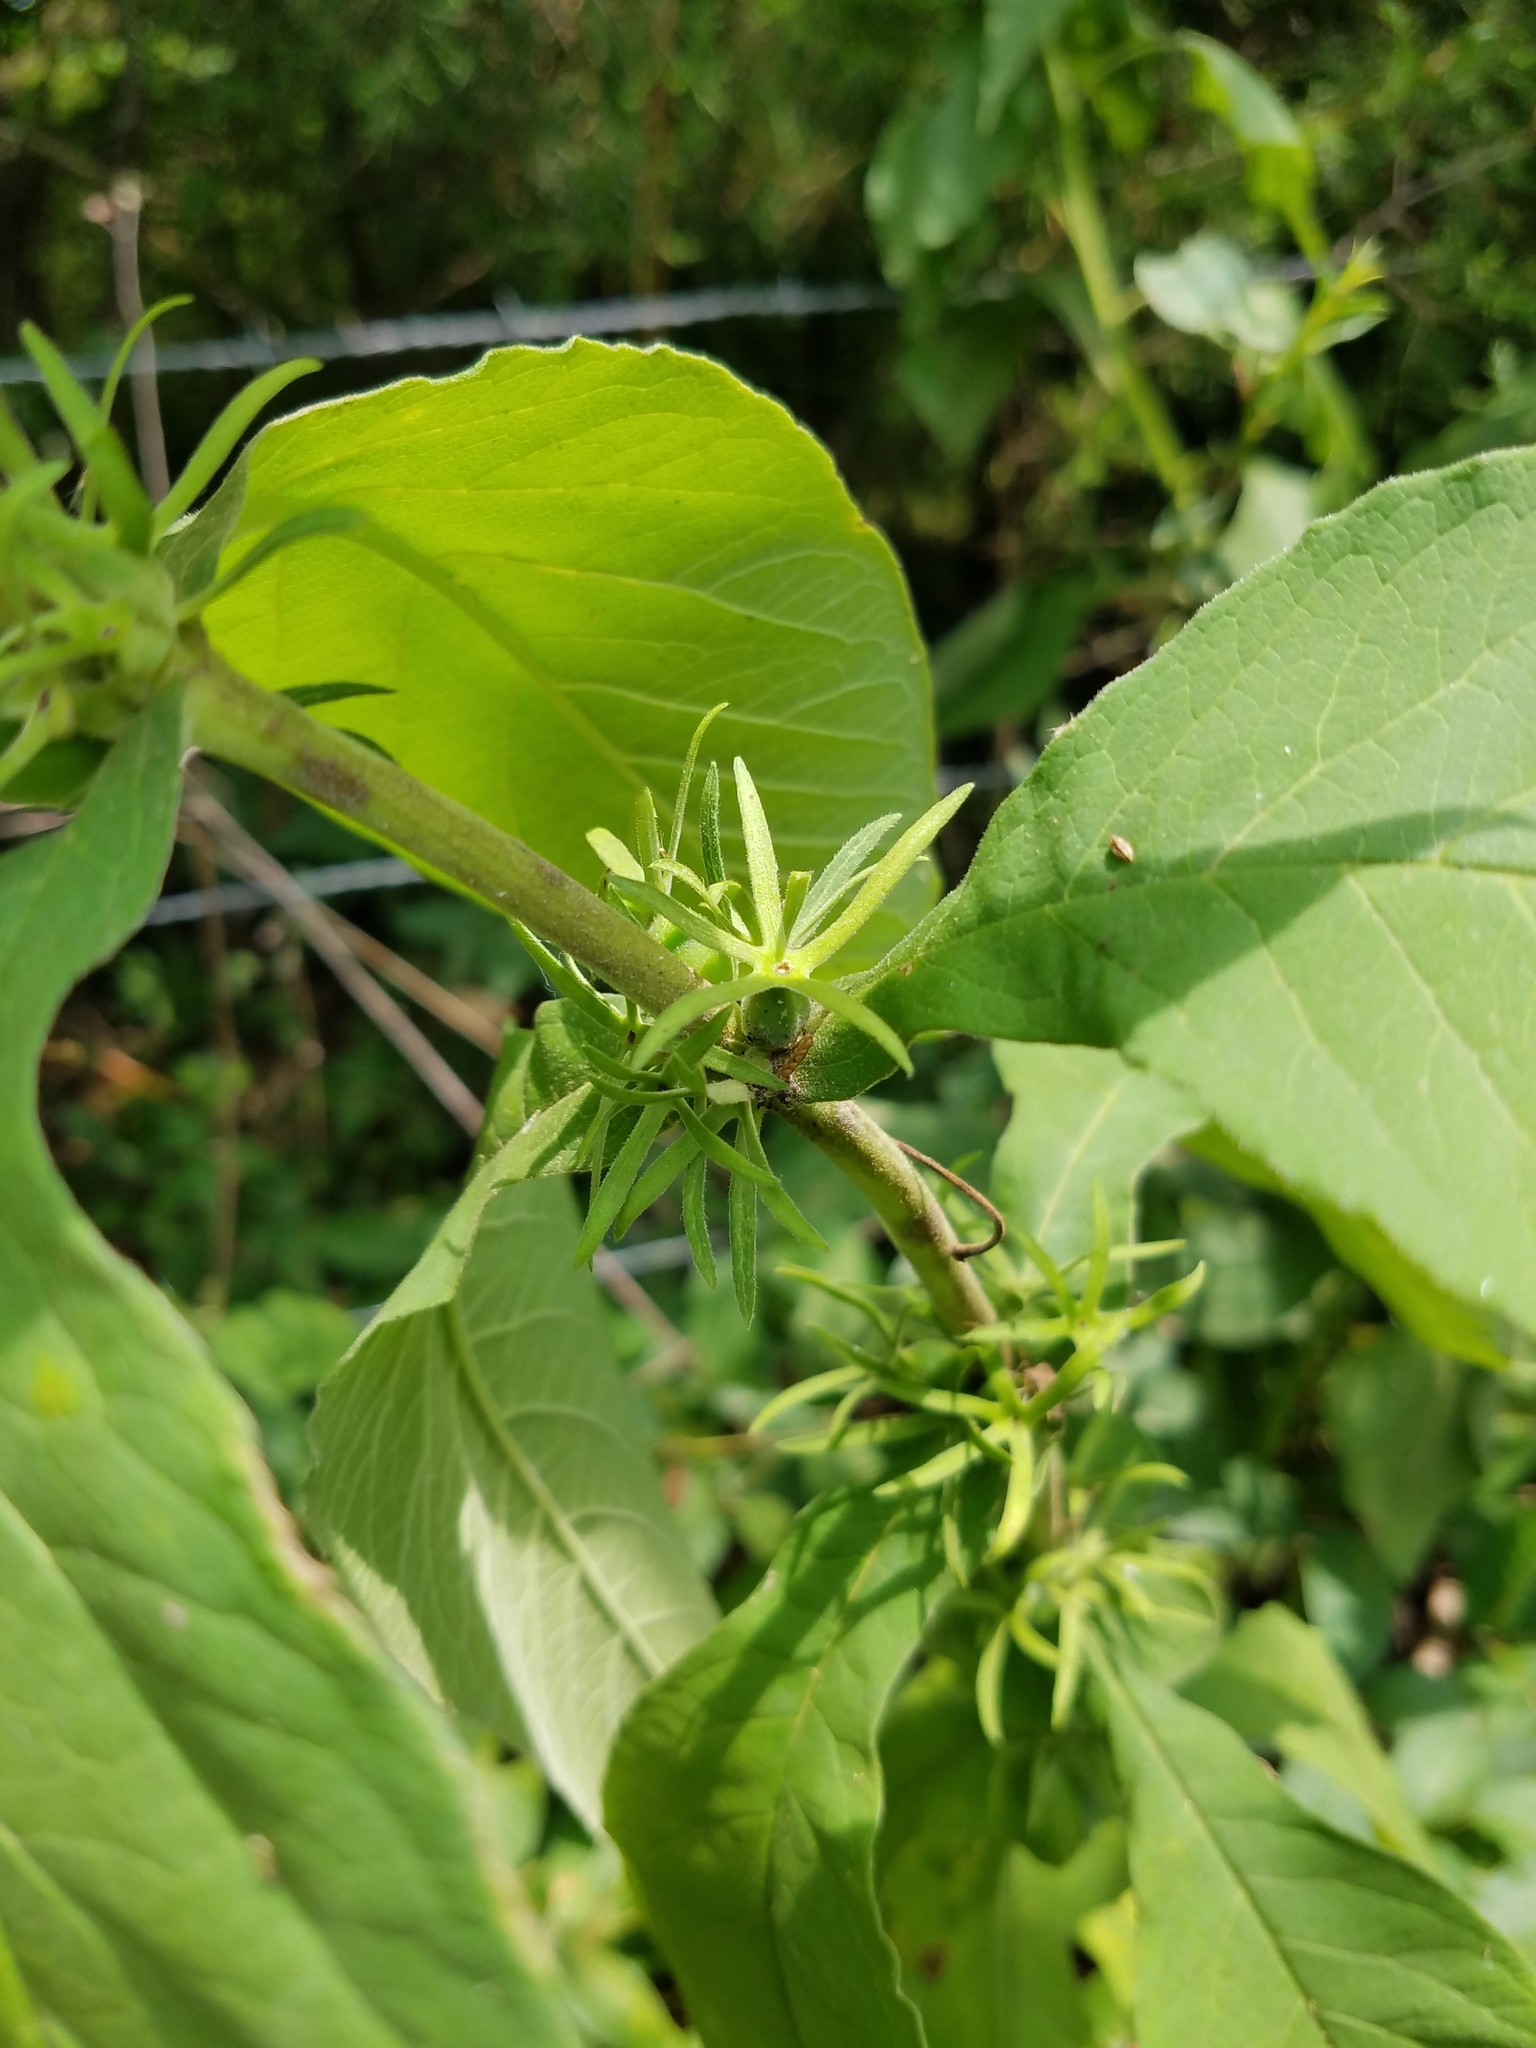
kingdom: Plantae
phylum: Tracheophyta
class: Magnoliopsida
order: Dipsacales
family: Caprifoliaceae
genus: Triosteum
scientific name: Triosteum perfoliatum
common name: Common horse-gentian
